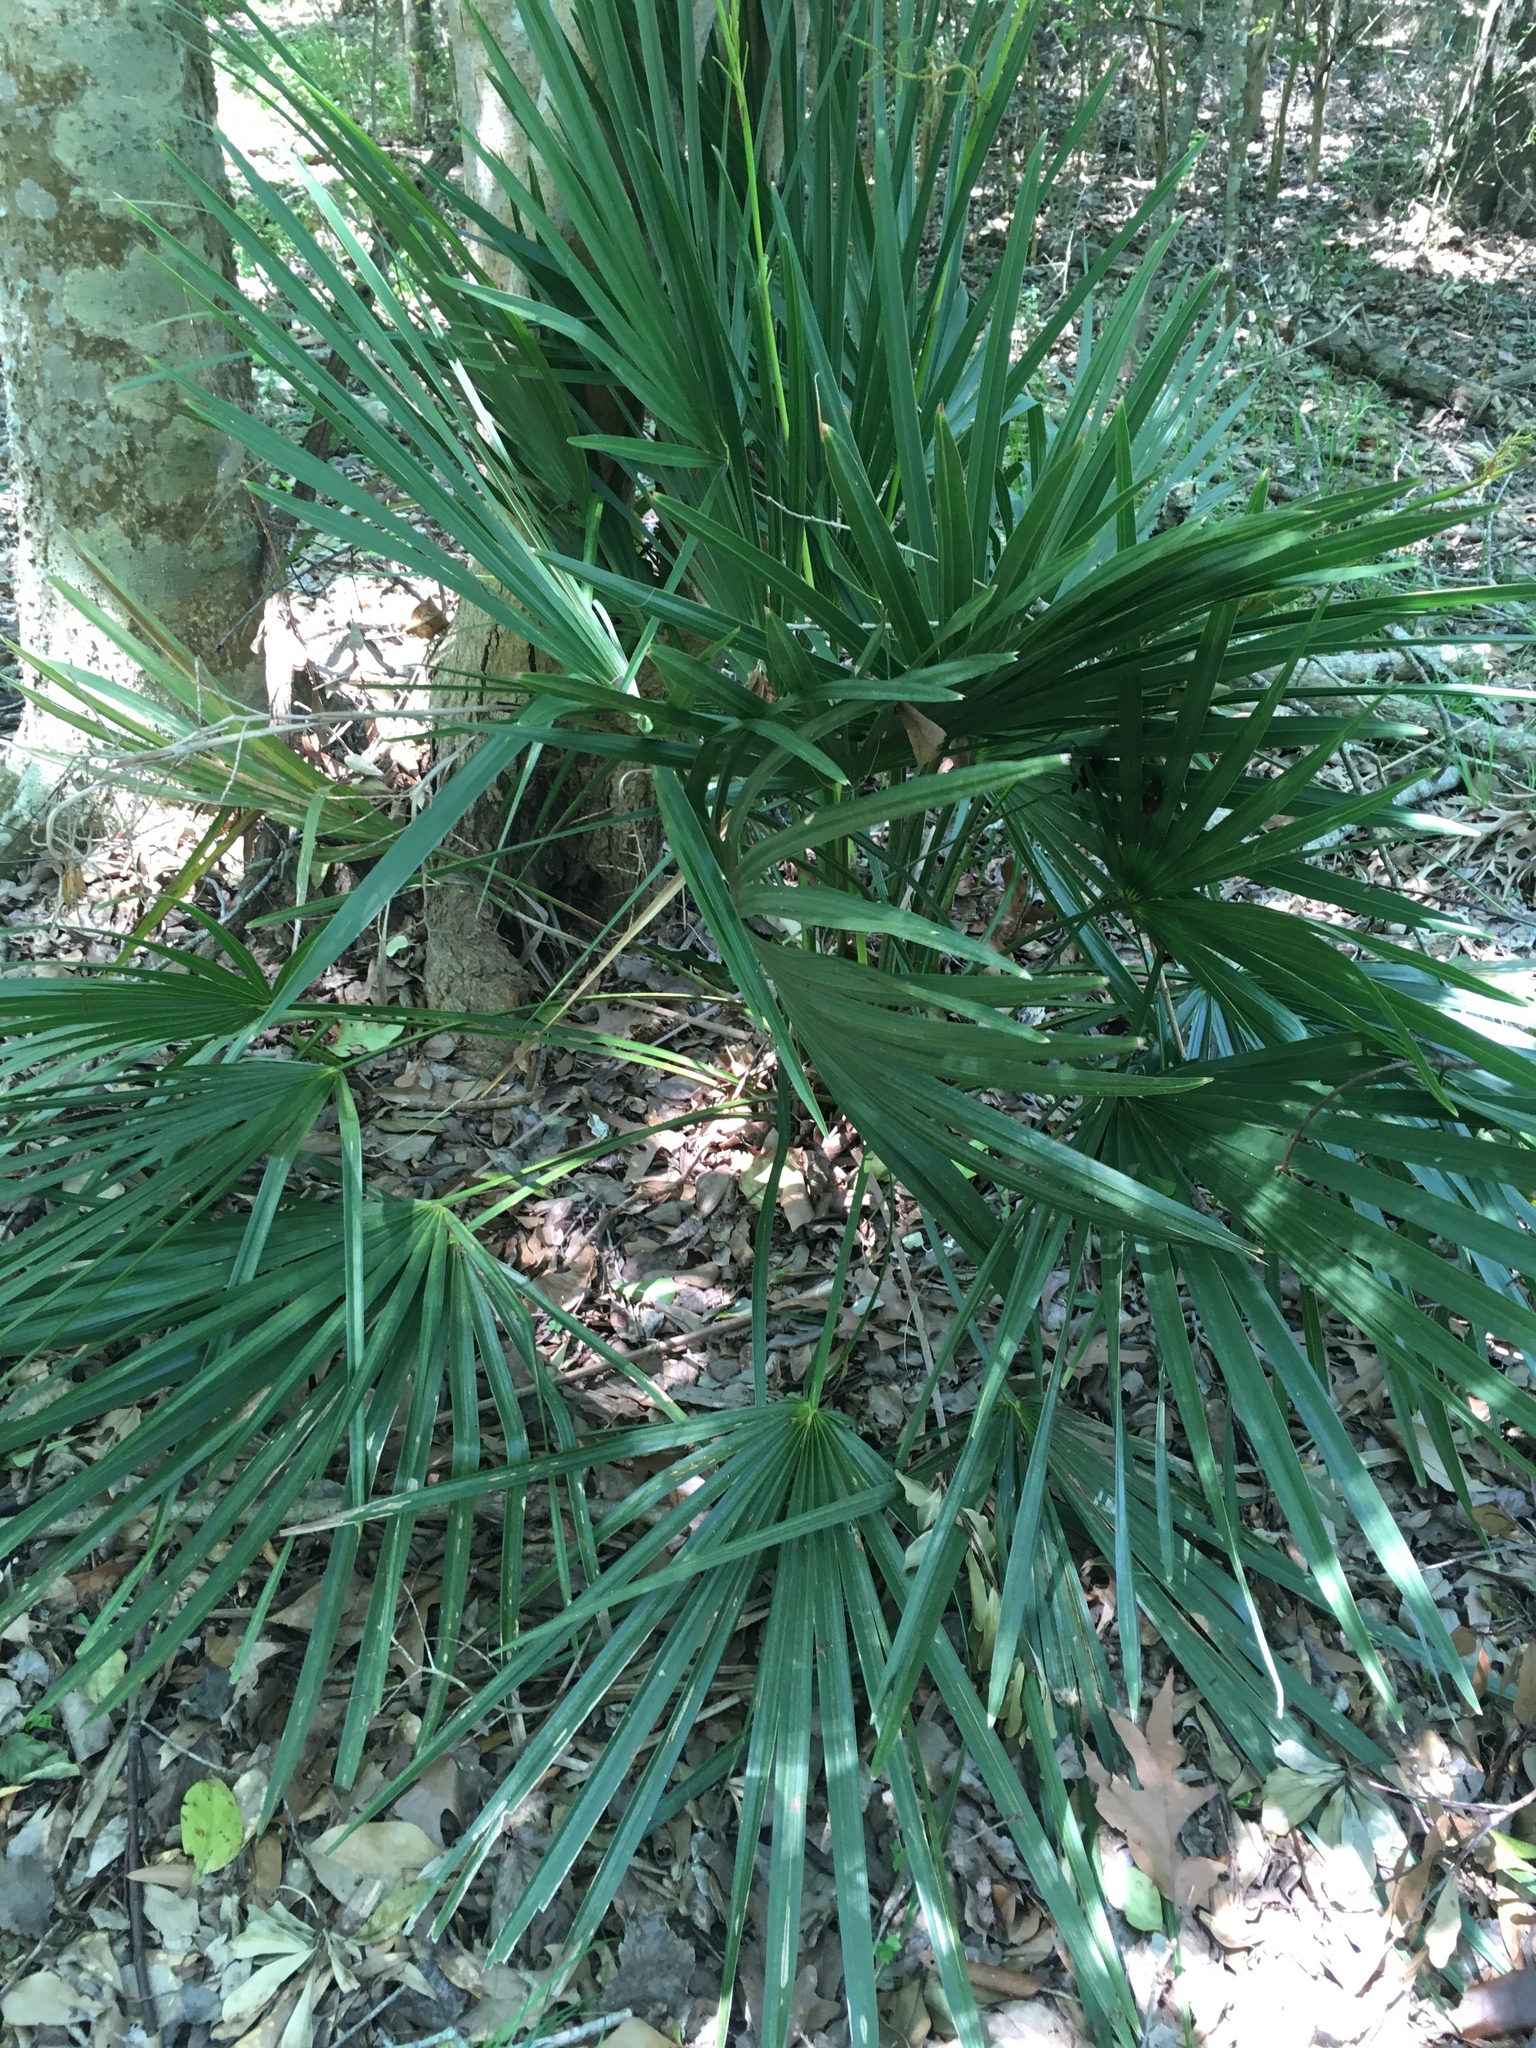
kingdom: Plantae
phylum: Tracheophyta
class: Liliopsida
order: Arecales
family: Arecaceae
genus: Sabal
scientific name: Sabal minor
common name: Dwarf palmetto
